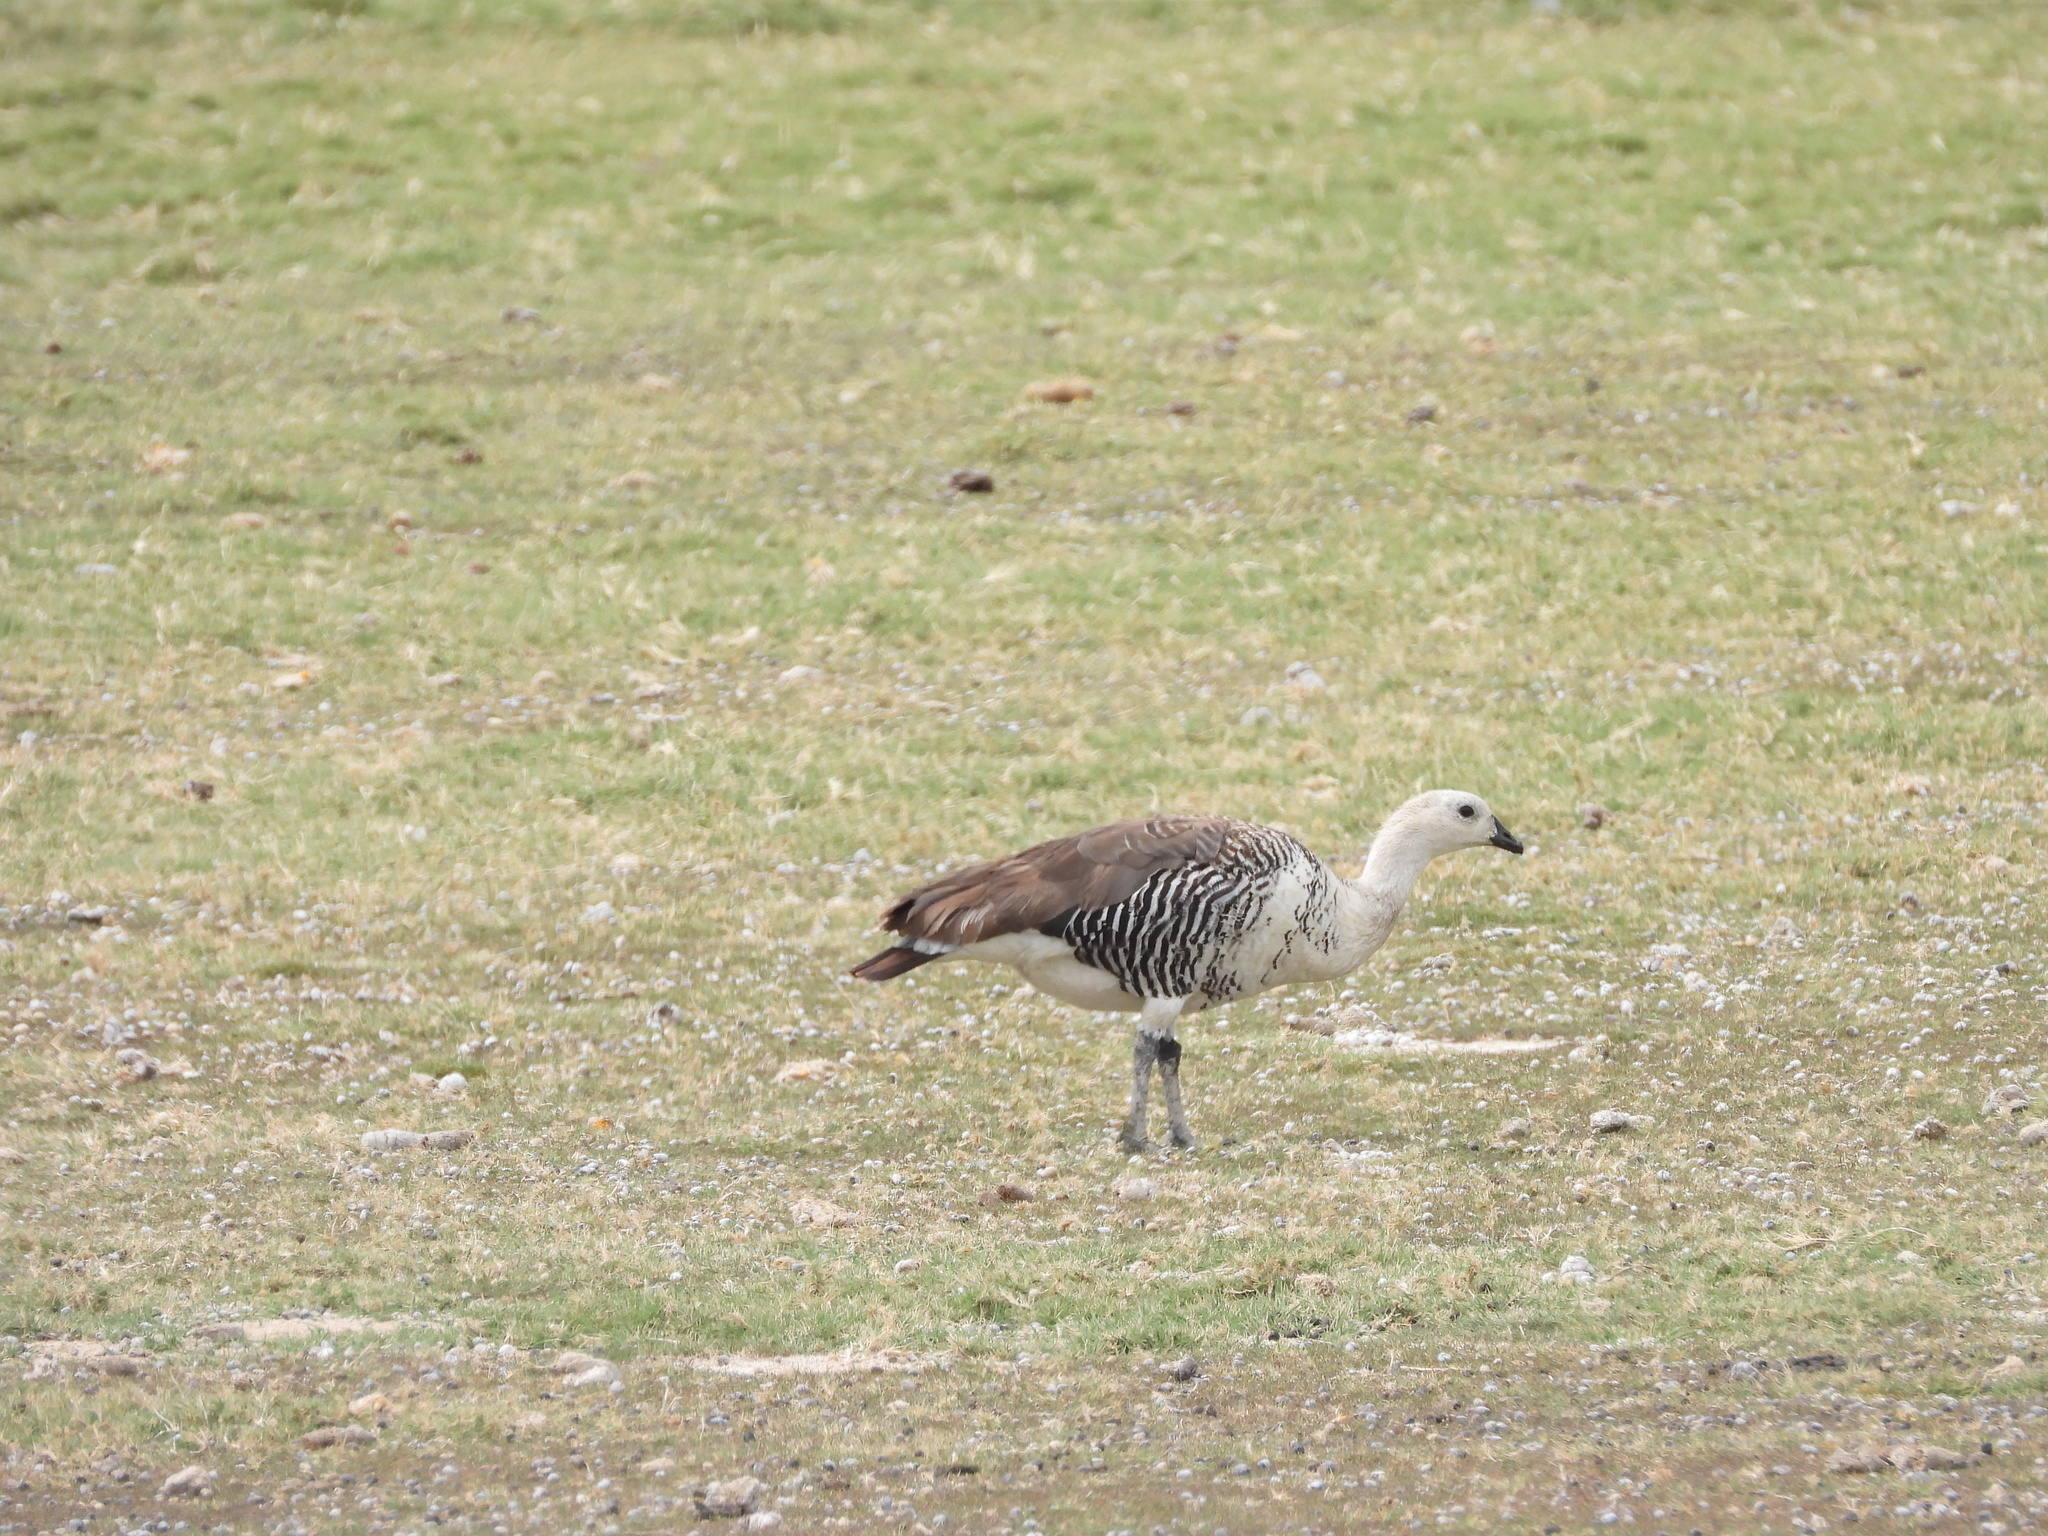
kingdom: Animalia
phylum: Chordata
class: Aves
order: Anseriformes
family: Anatidae
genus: Chloephaga
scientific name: Chloephaga picta
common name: Upland goose
